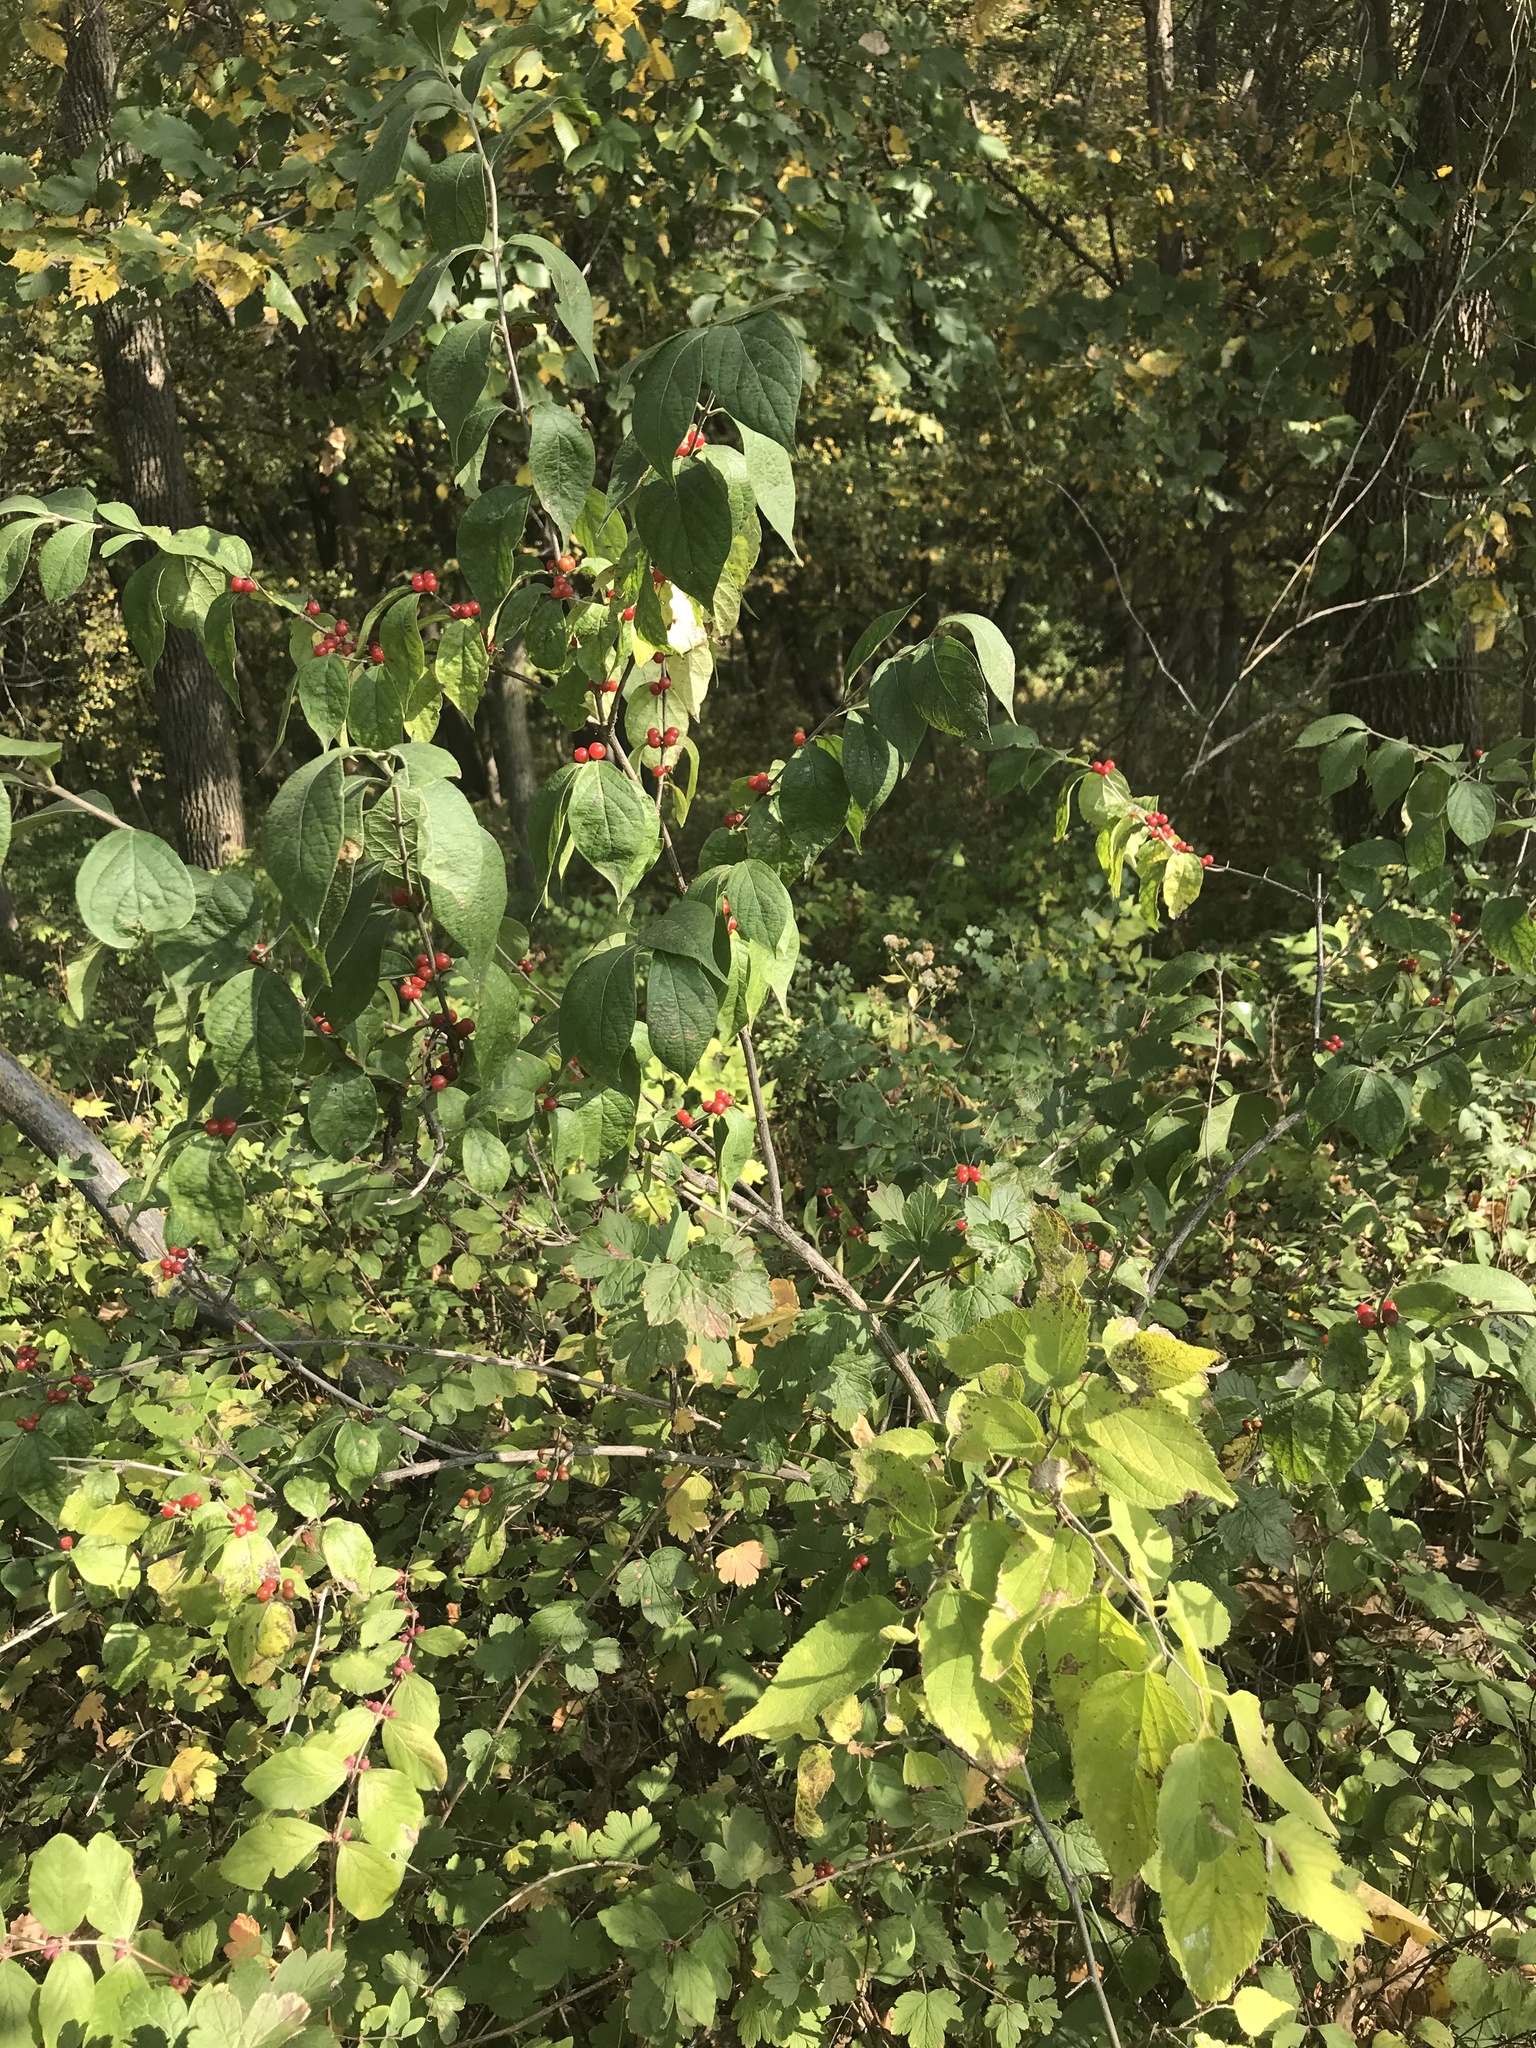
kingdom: Plantae
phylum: Tracheophyta
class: Magnoliopsida
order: Dipsacales
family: Caprifoliaceae
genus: Lonicera
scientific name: Lonicera maackii
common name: Amur honeysuckle
